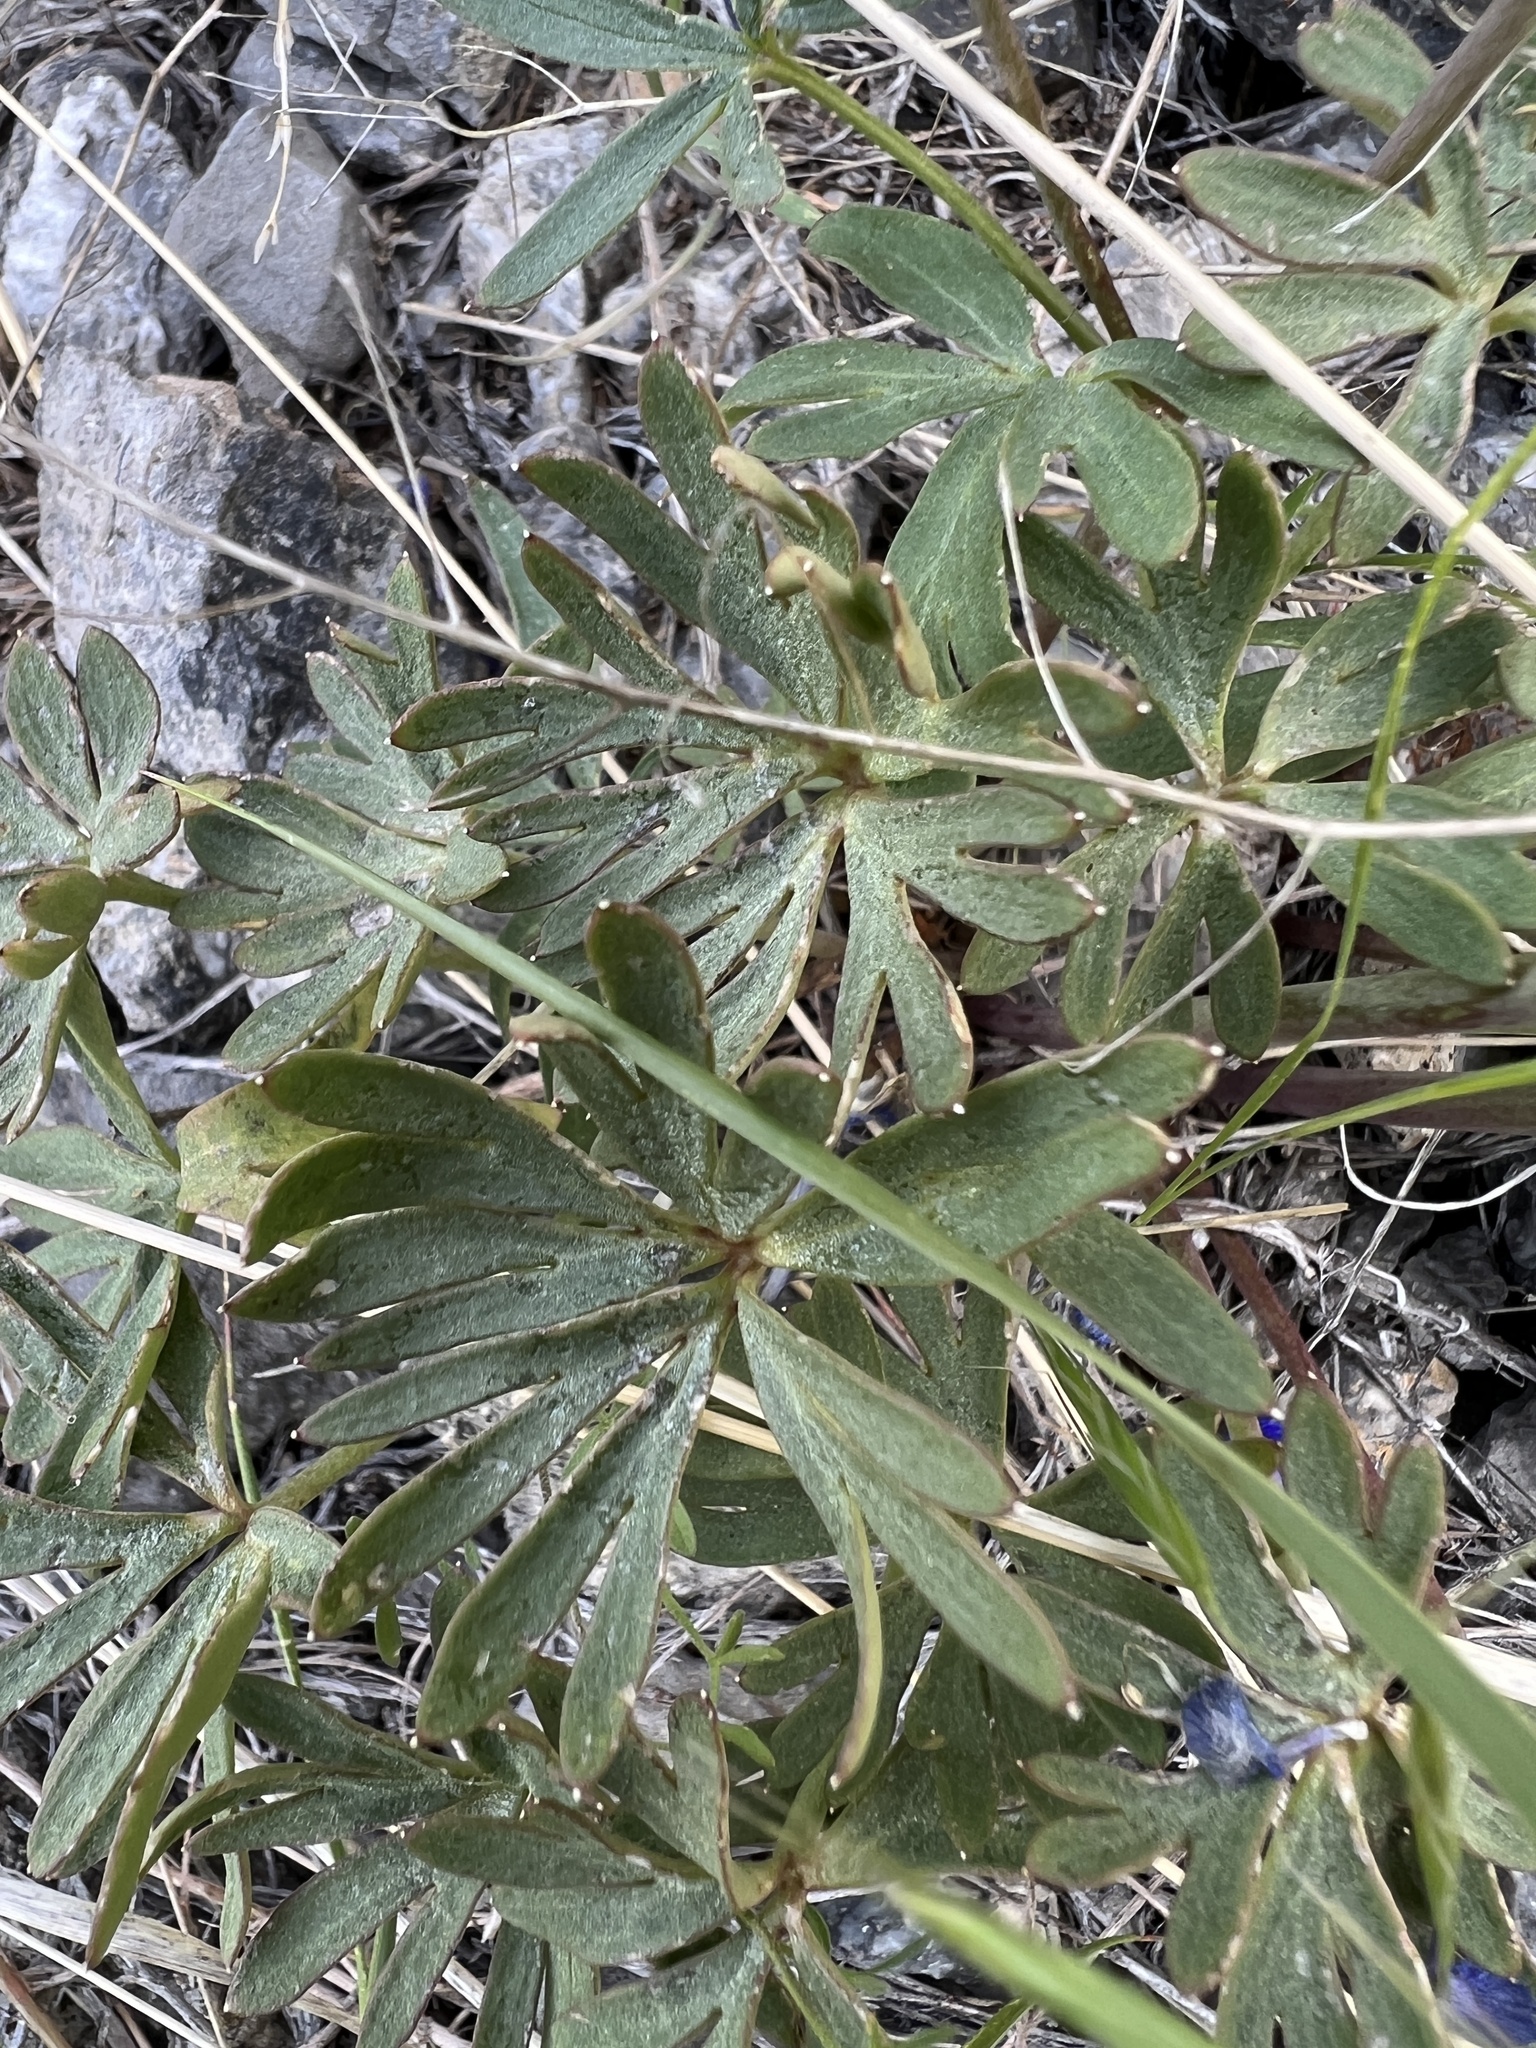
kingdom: Plantae
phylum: Tracheophyta
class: Magnoliopsida
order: Ranunculales
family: Ranunculaceae
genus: Delphinium
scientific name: Delphinium nuttallianum
